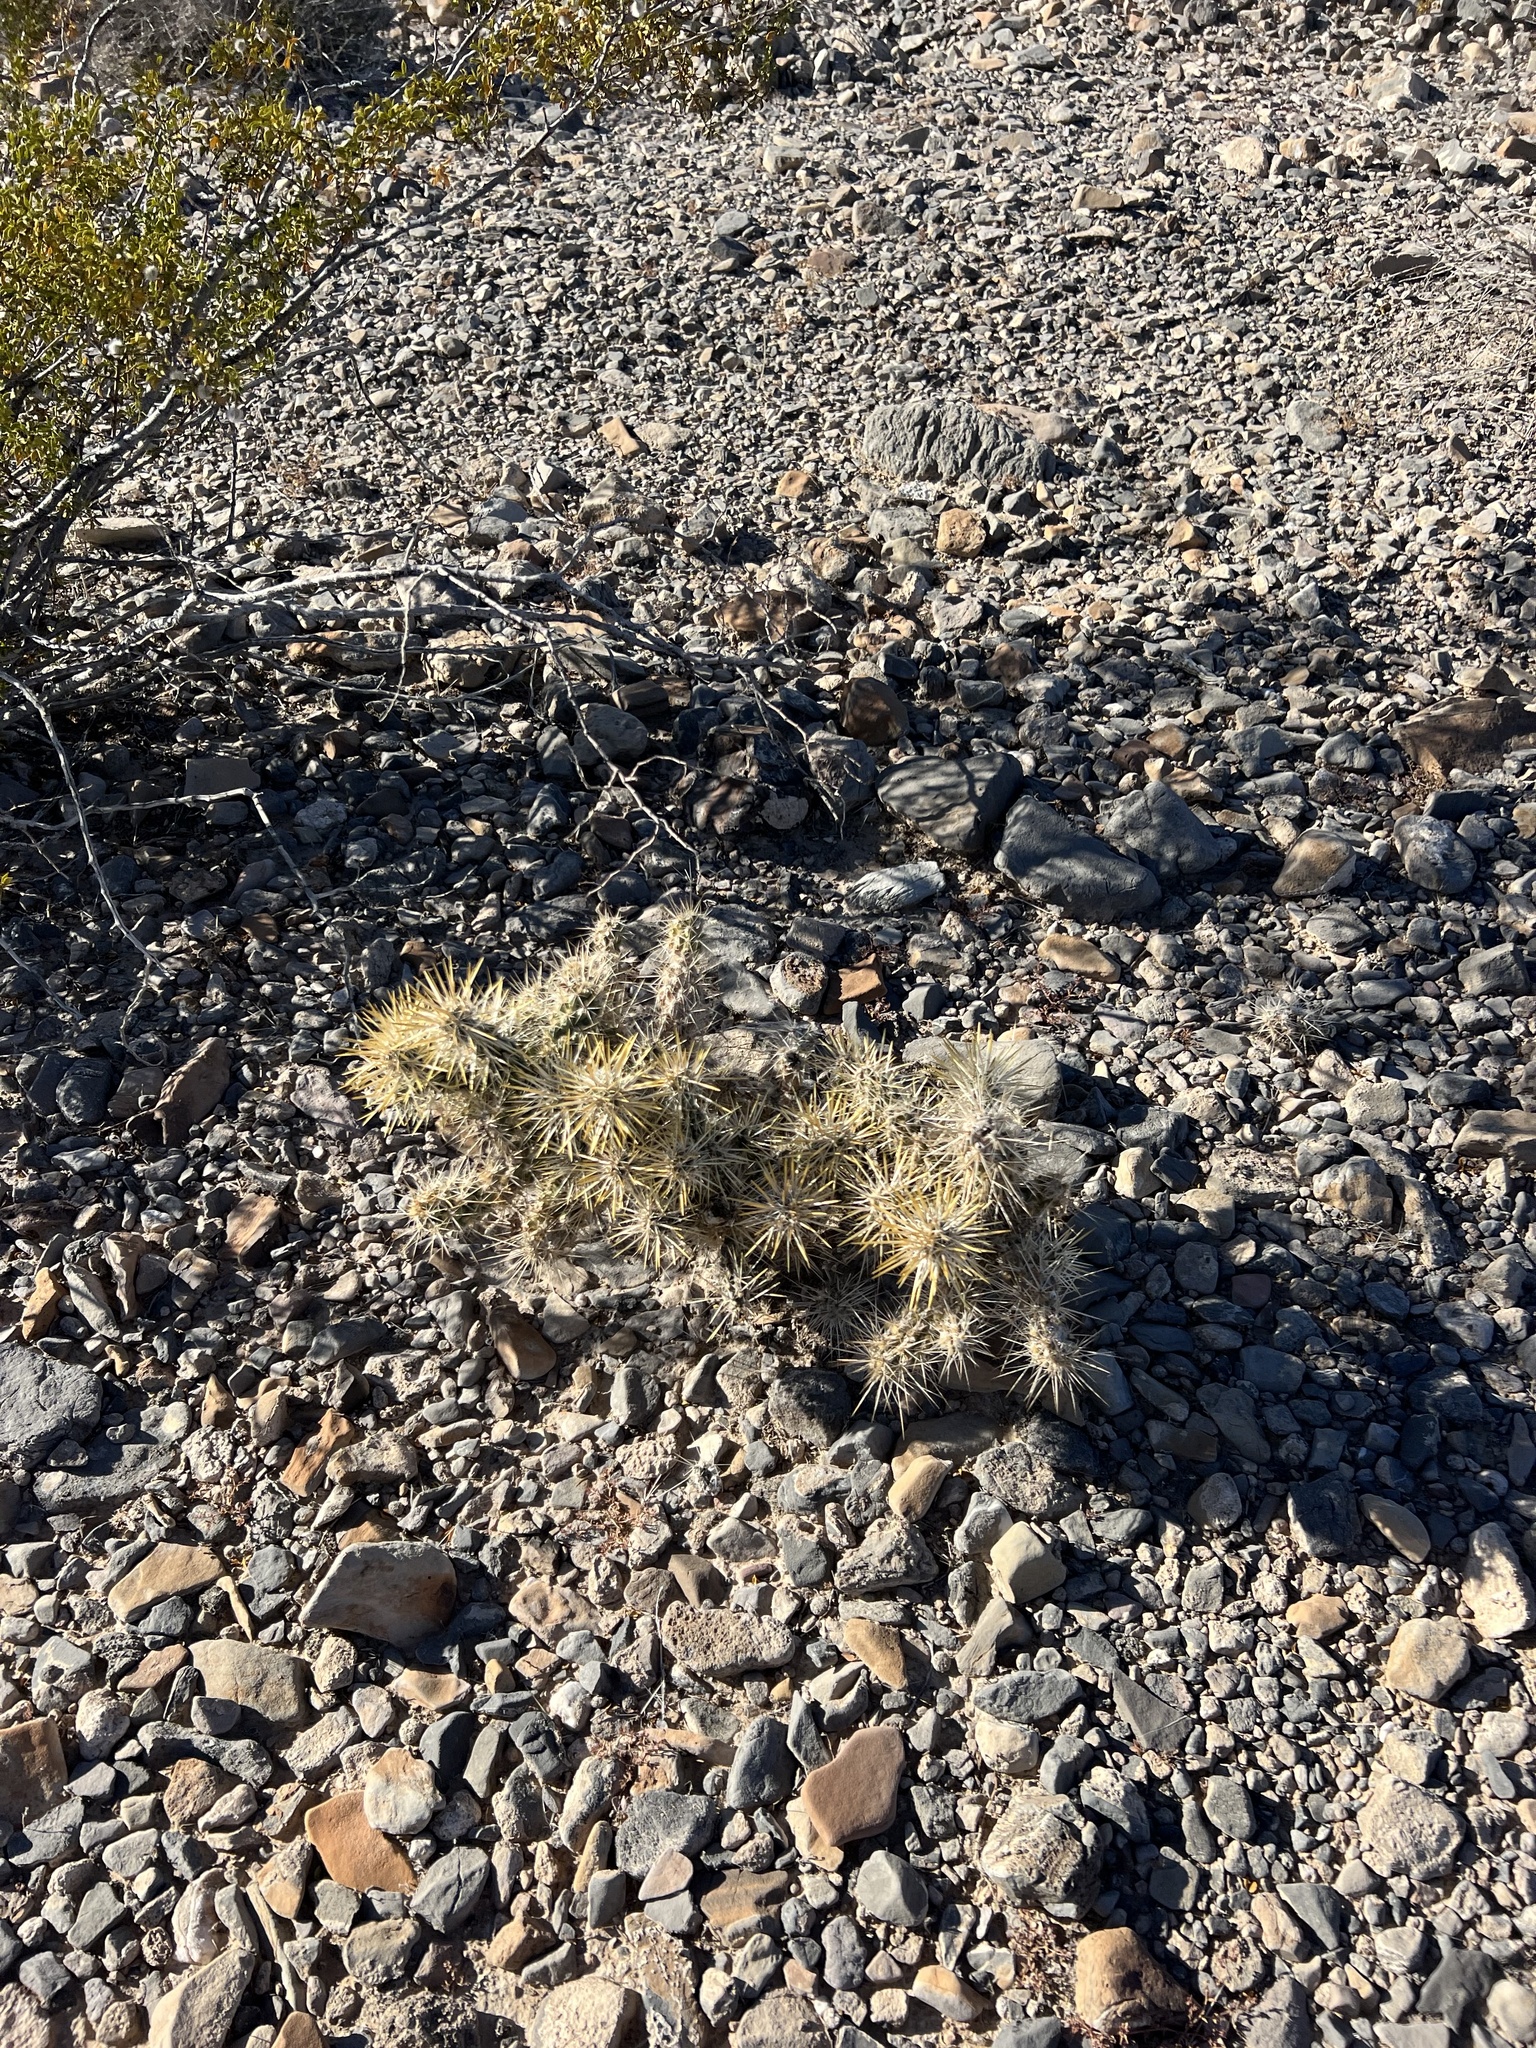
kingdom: Plantae
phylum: Tracheophyta
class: Magnoliopsida
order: Caryophyllales
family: Cactaceae
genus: Cylindropuntia
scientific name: Cylindropuntia echinocarpa
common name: Ground cholla
